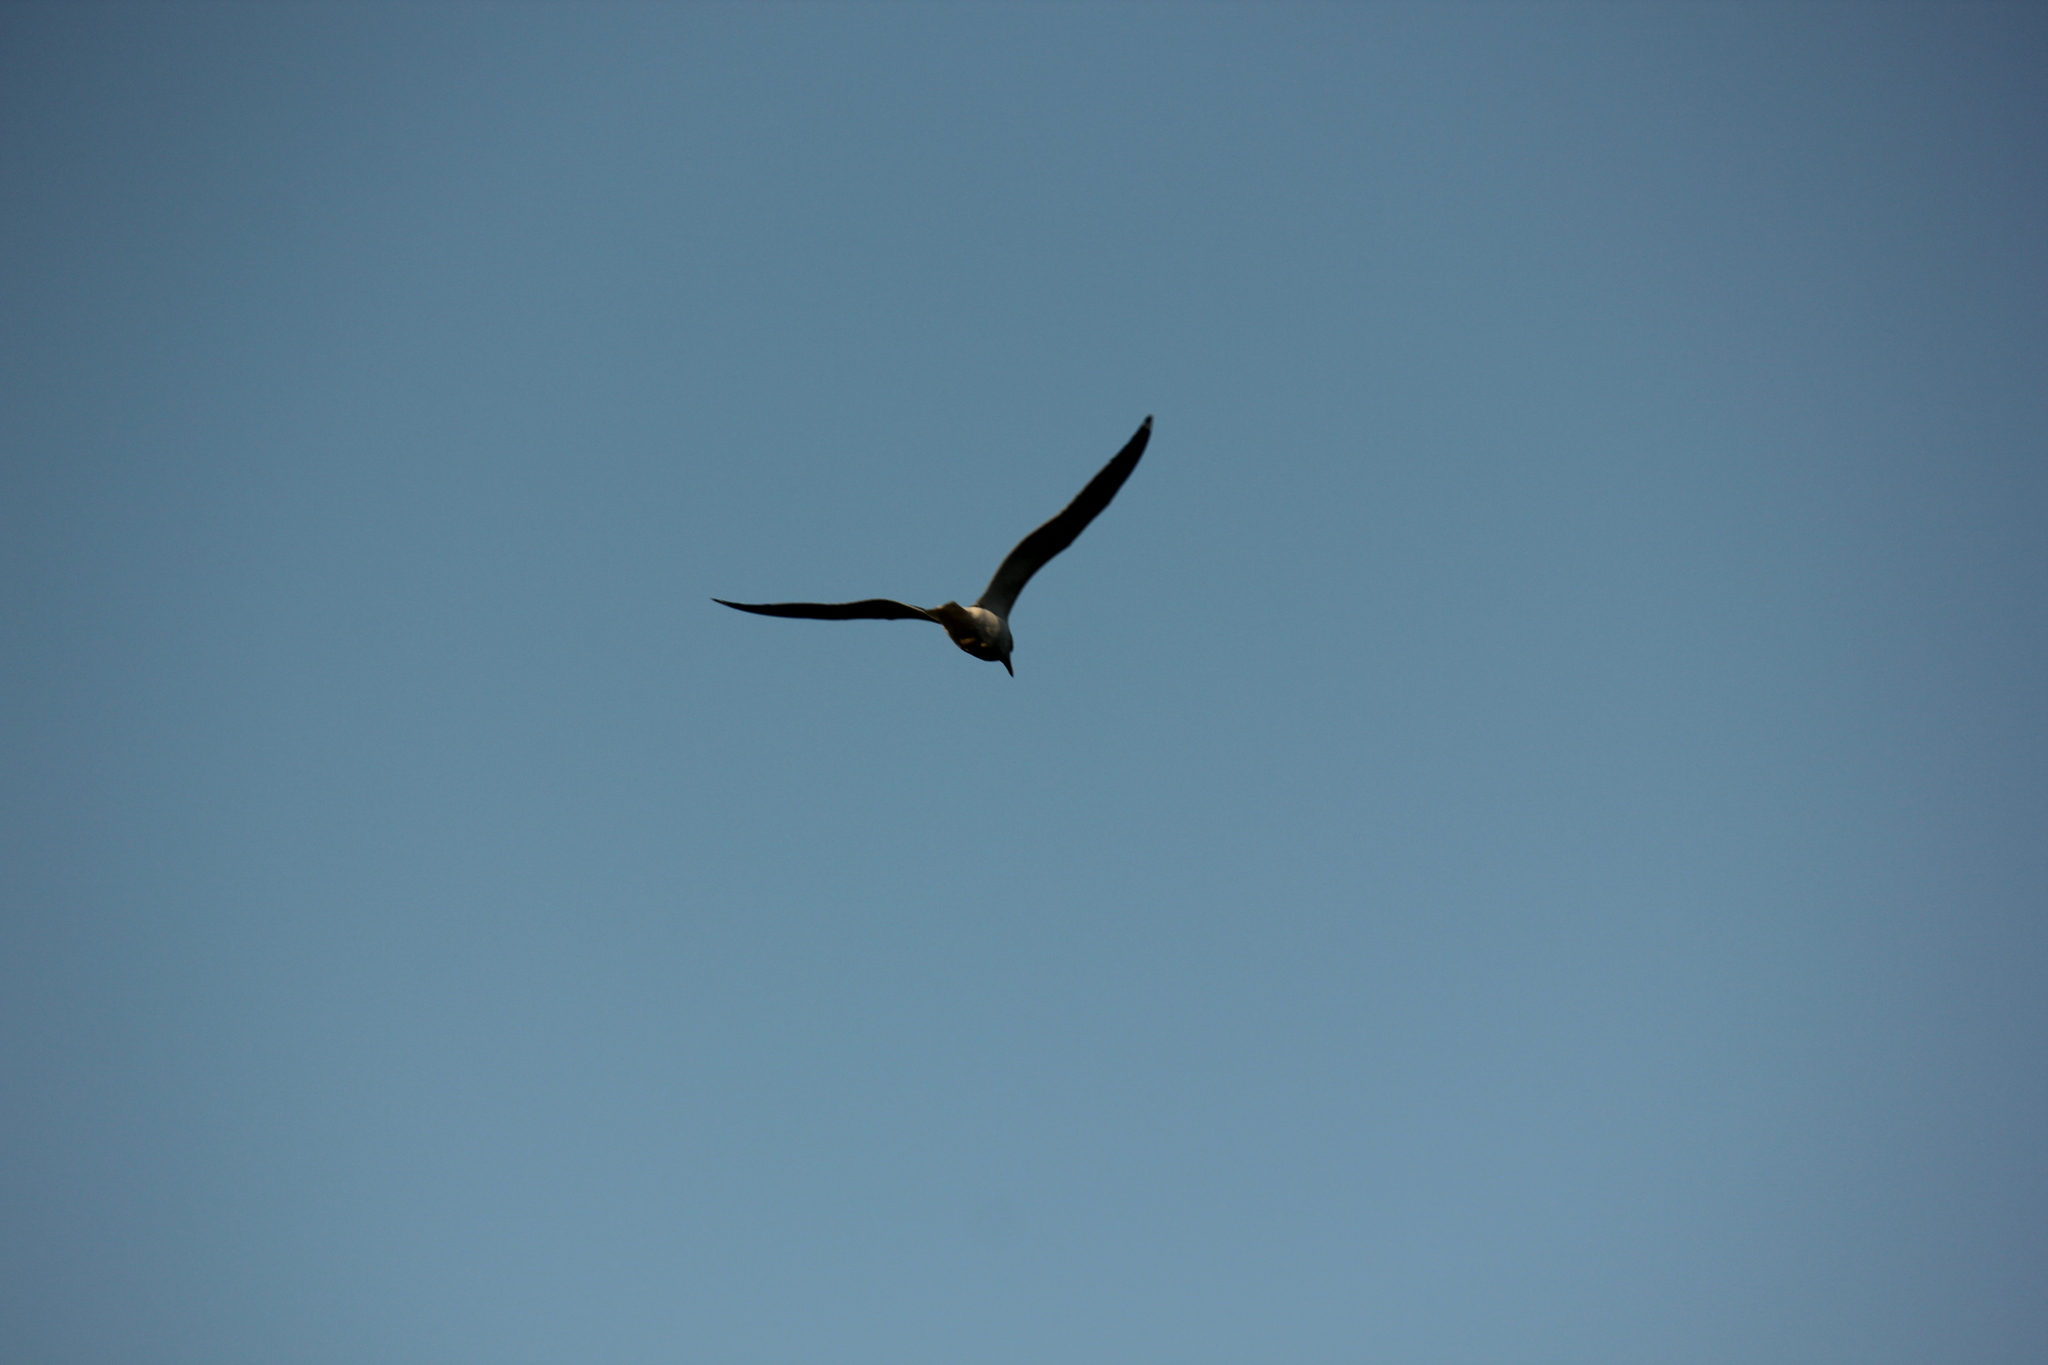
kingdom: Animalia
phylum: Chordata
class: Aves
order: Charadriiformes
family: Laridae
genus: Larus
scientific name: Larus
